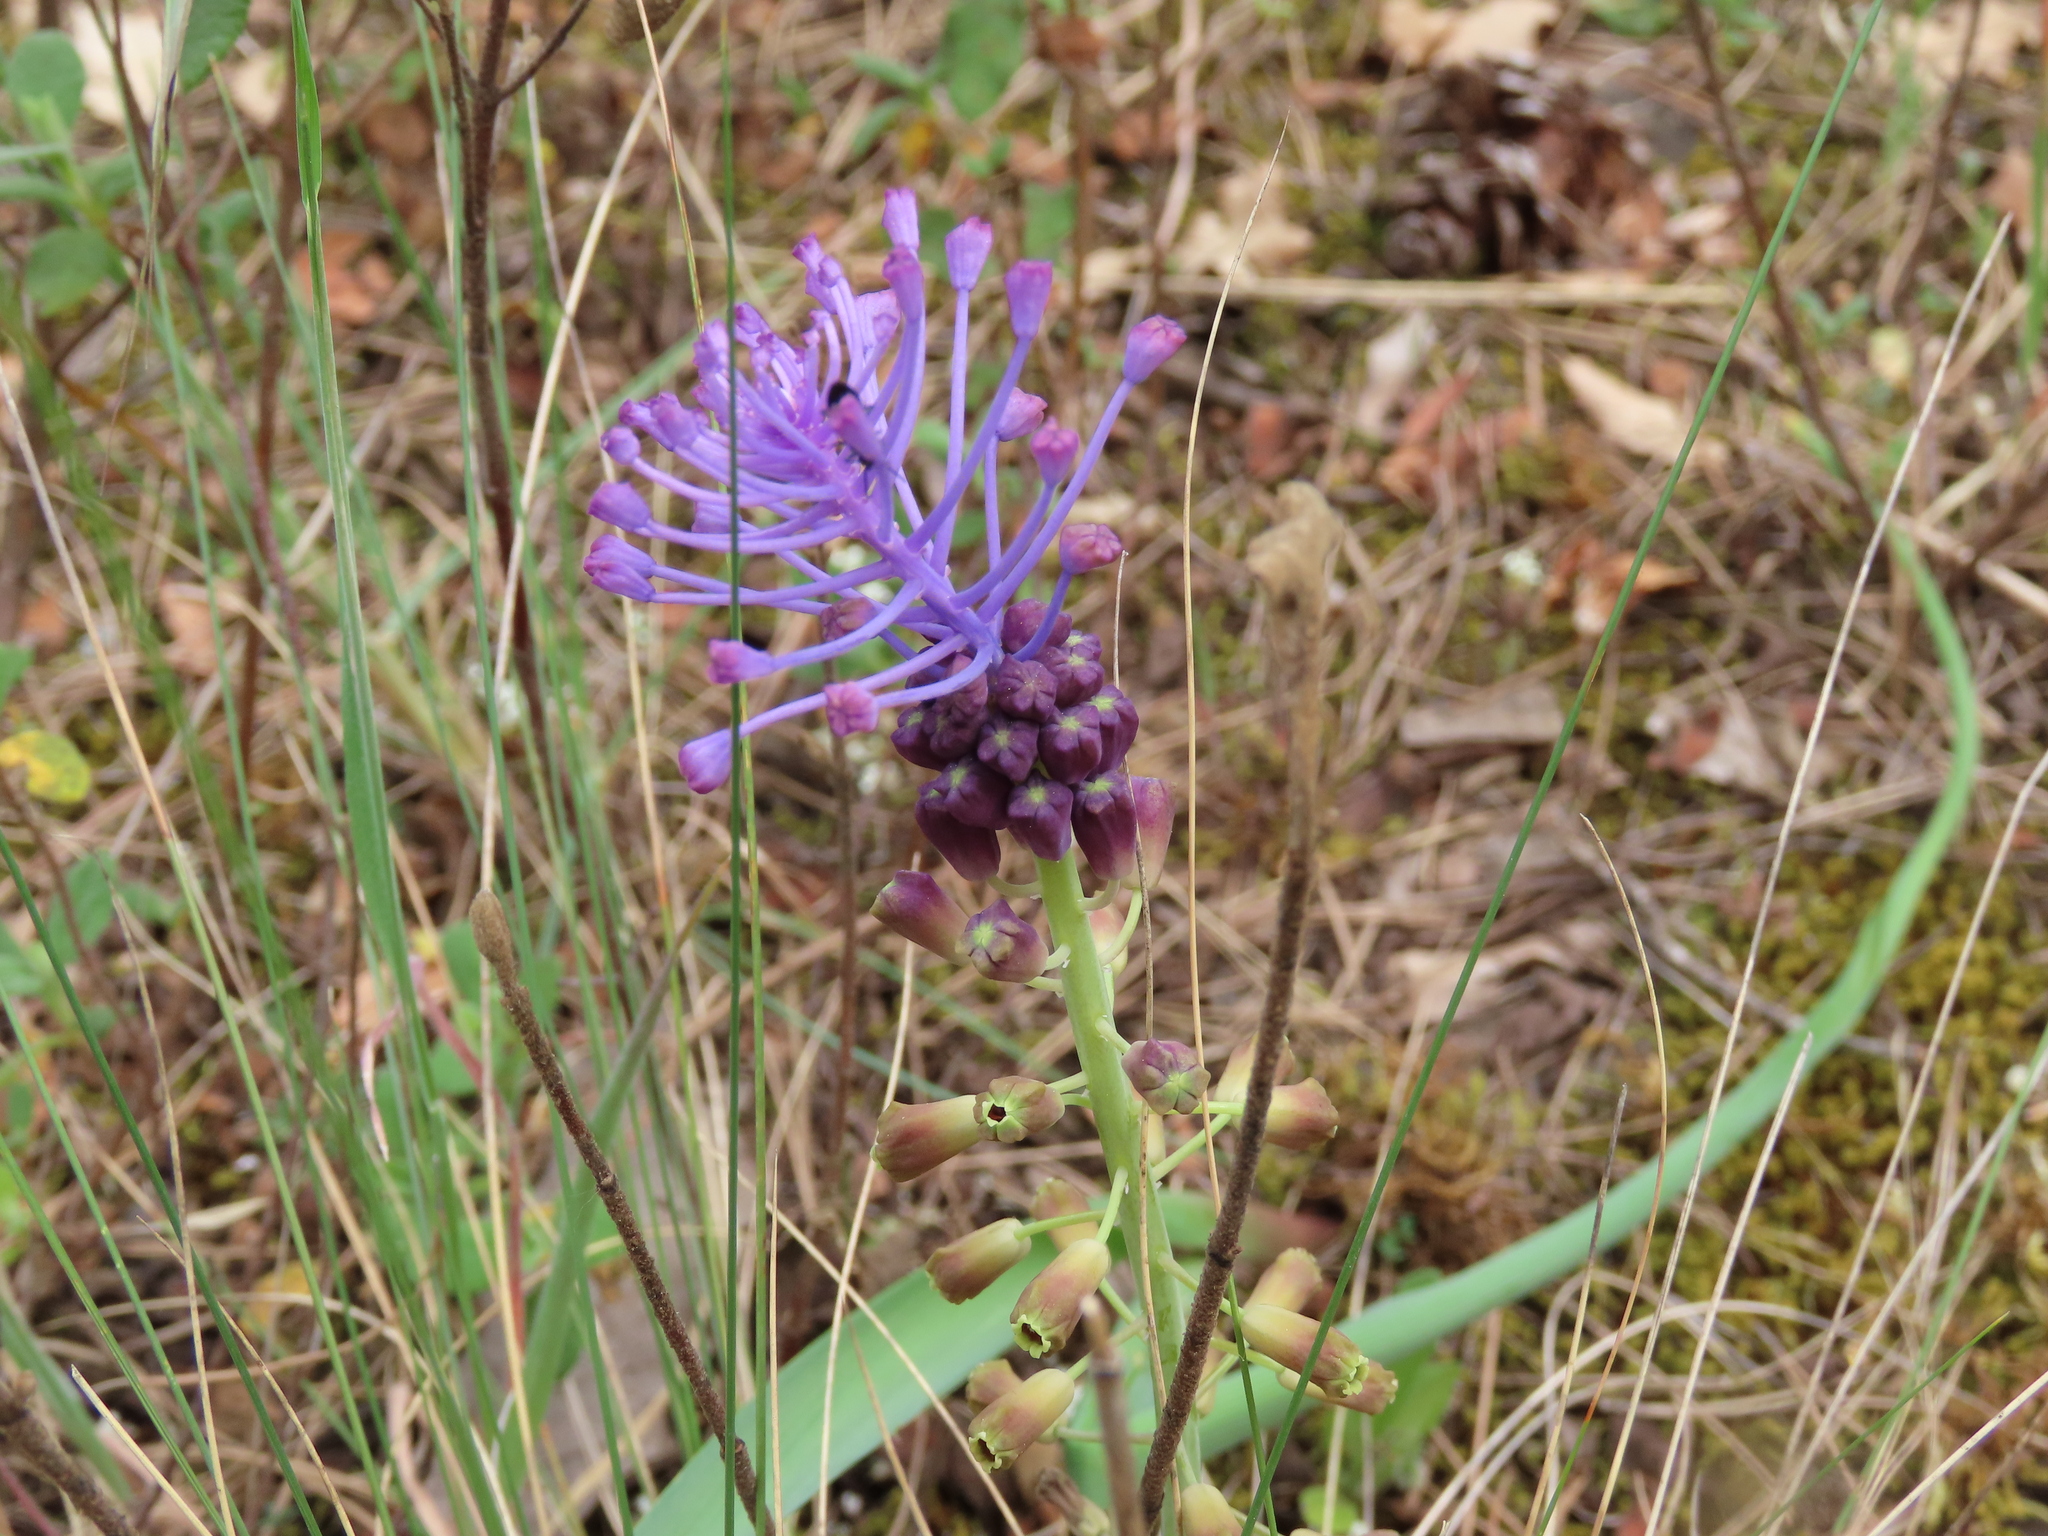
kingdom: Plantae
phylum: Tracheophyta
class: Liliopsida
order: Asparagales
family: Asparagaceae
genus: Muscari
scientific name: Muscari comosum
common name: Tassel hyacinth
